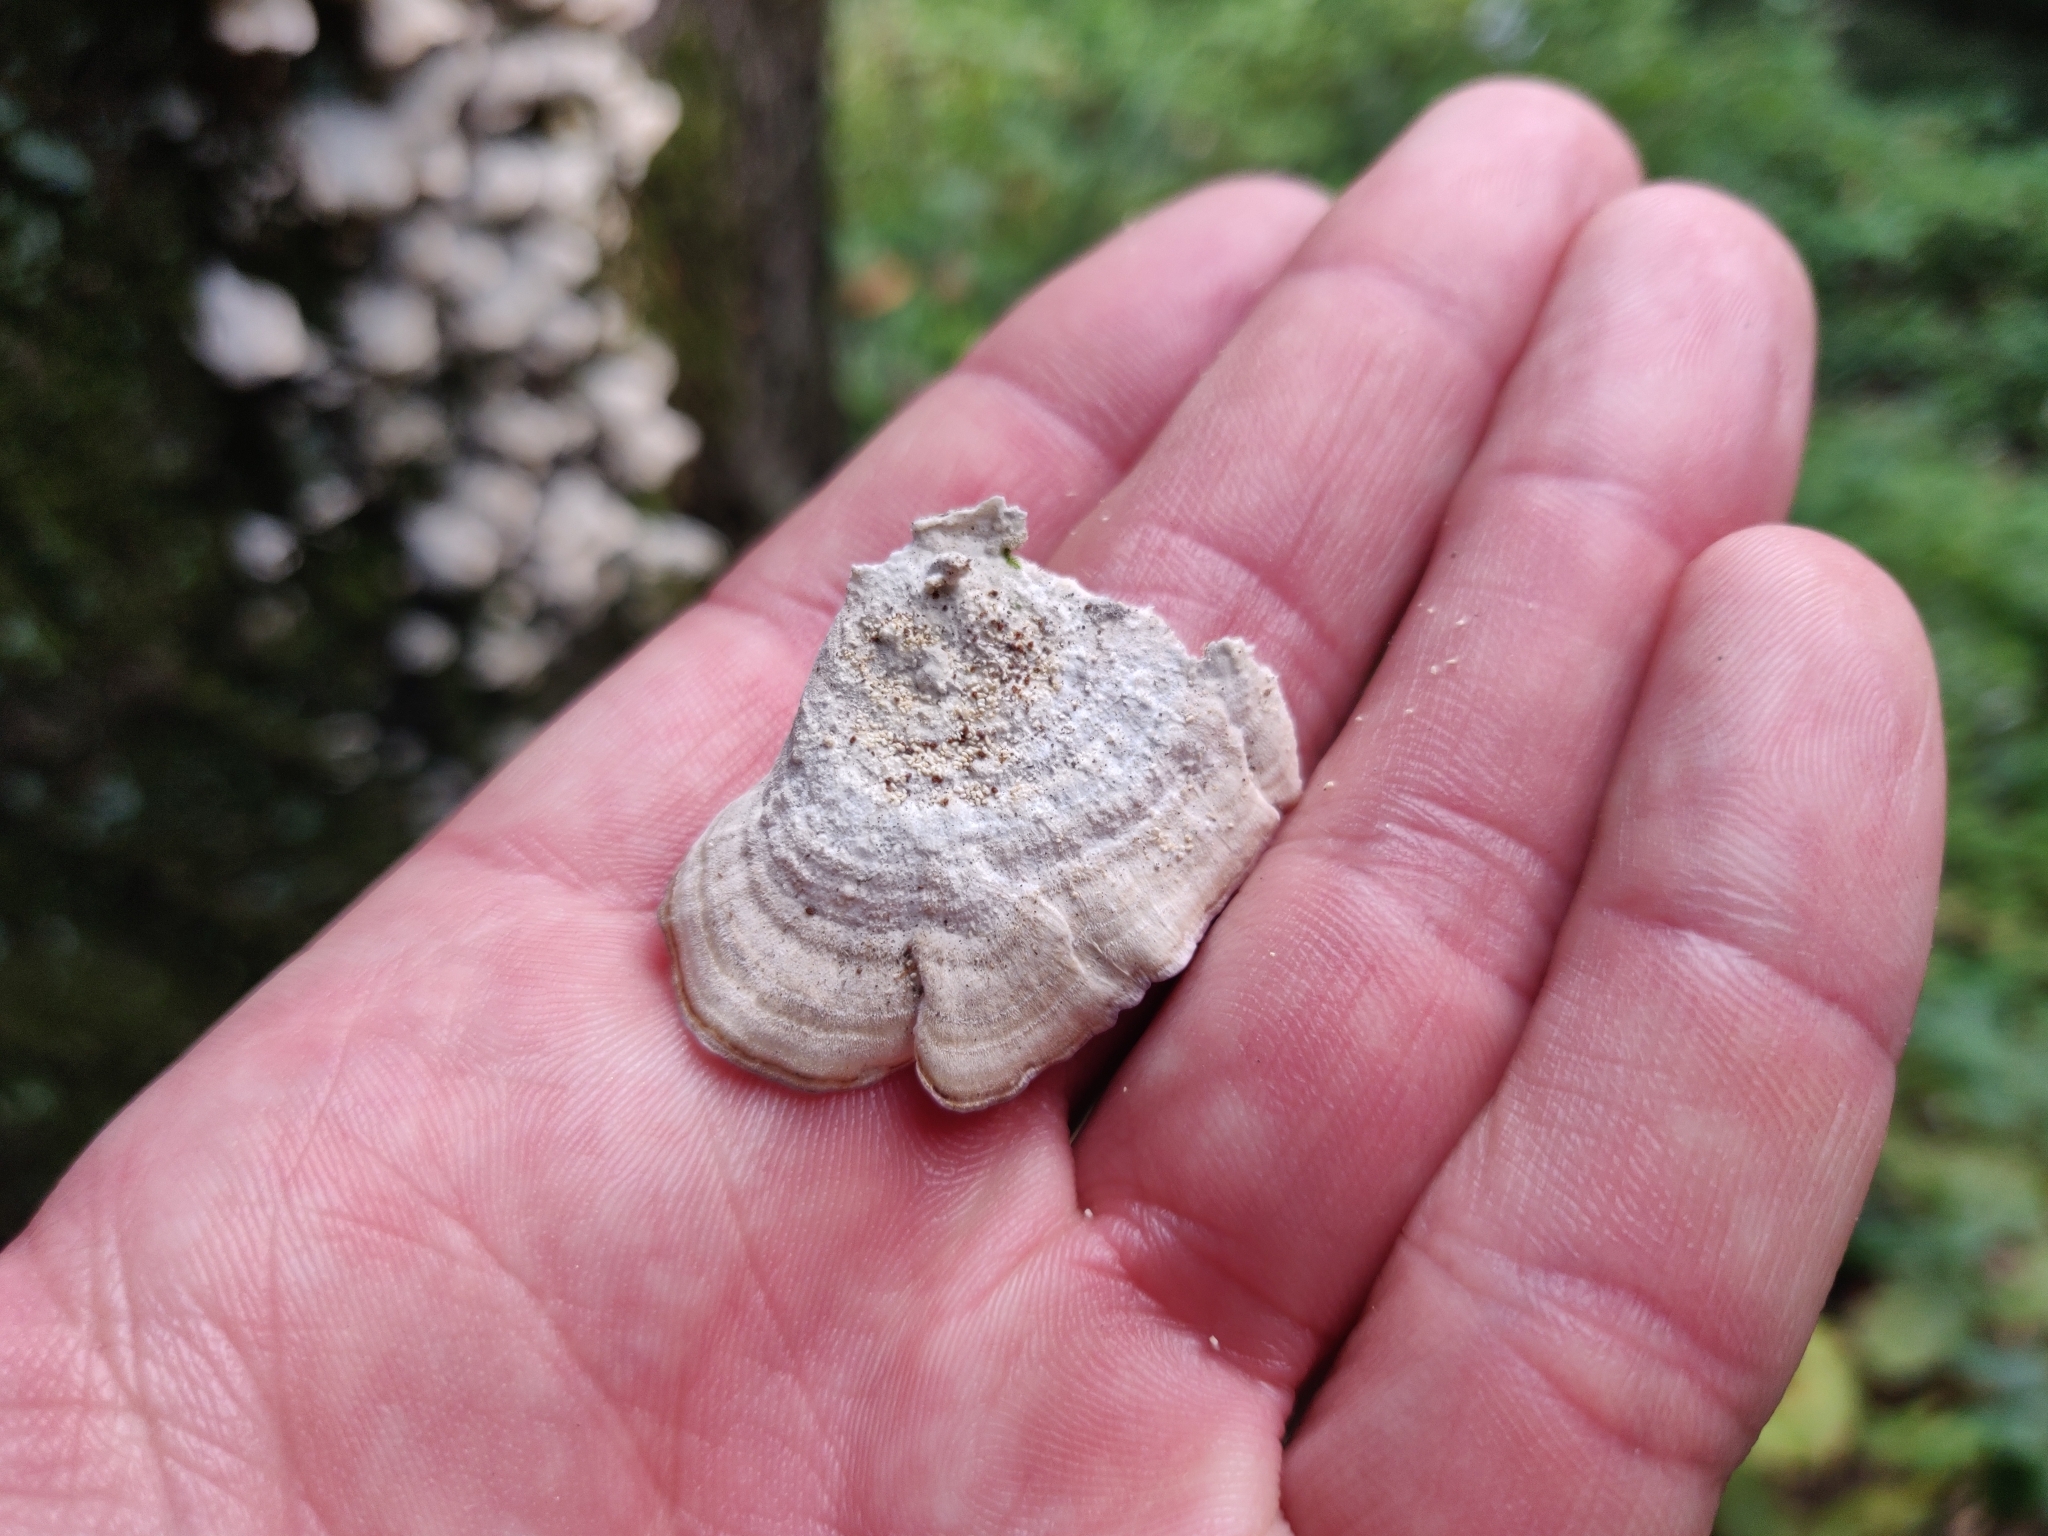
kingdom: Fungi
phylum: Basidiomycota
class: Agaricomycetes
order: Hymenochaetales
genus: Trichaptum
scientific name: Trichaptum biforme
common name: Violet-toothed polypore
